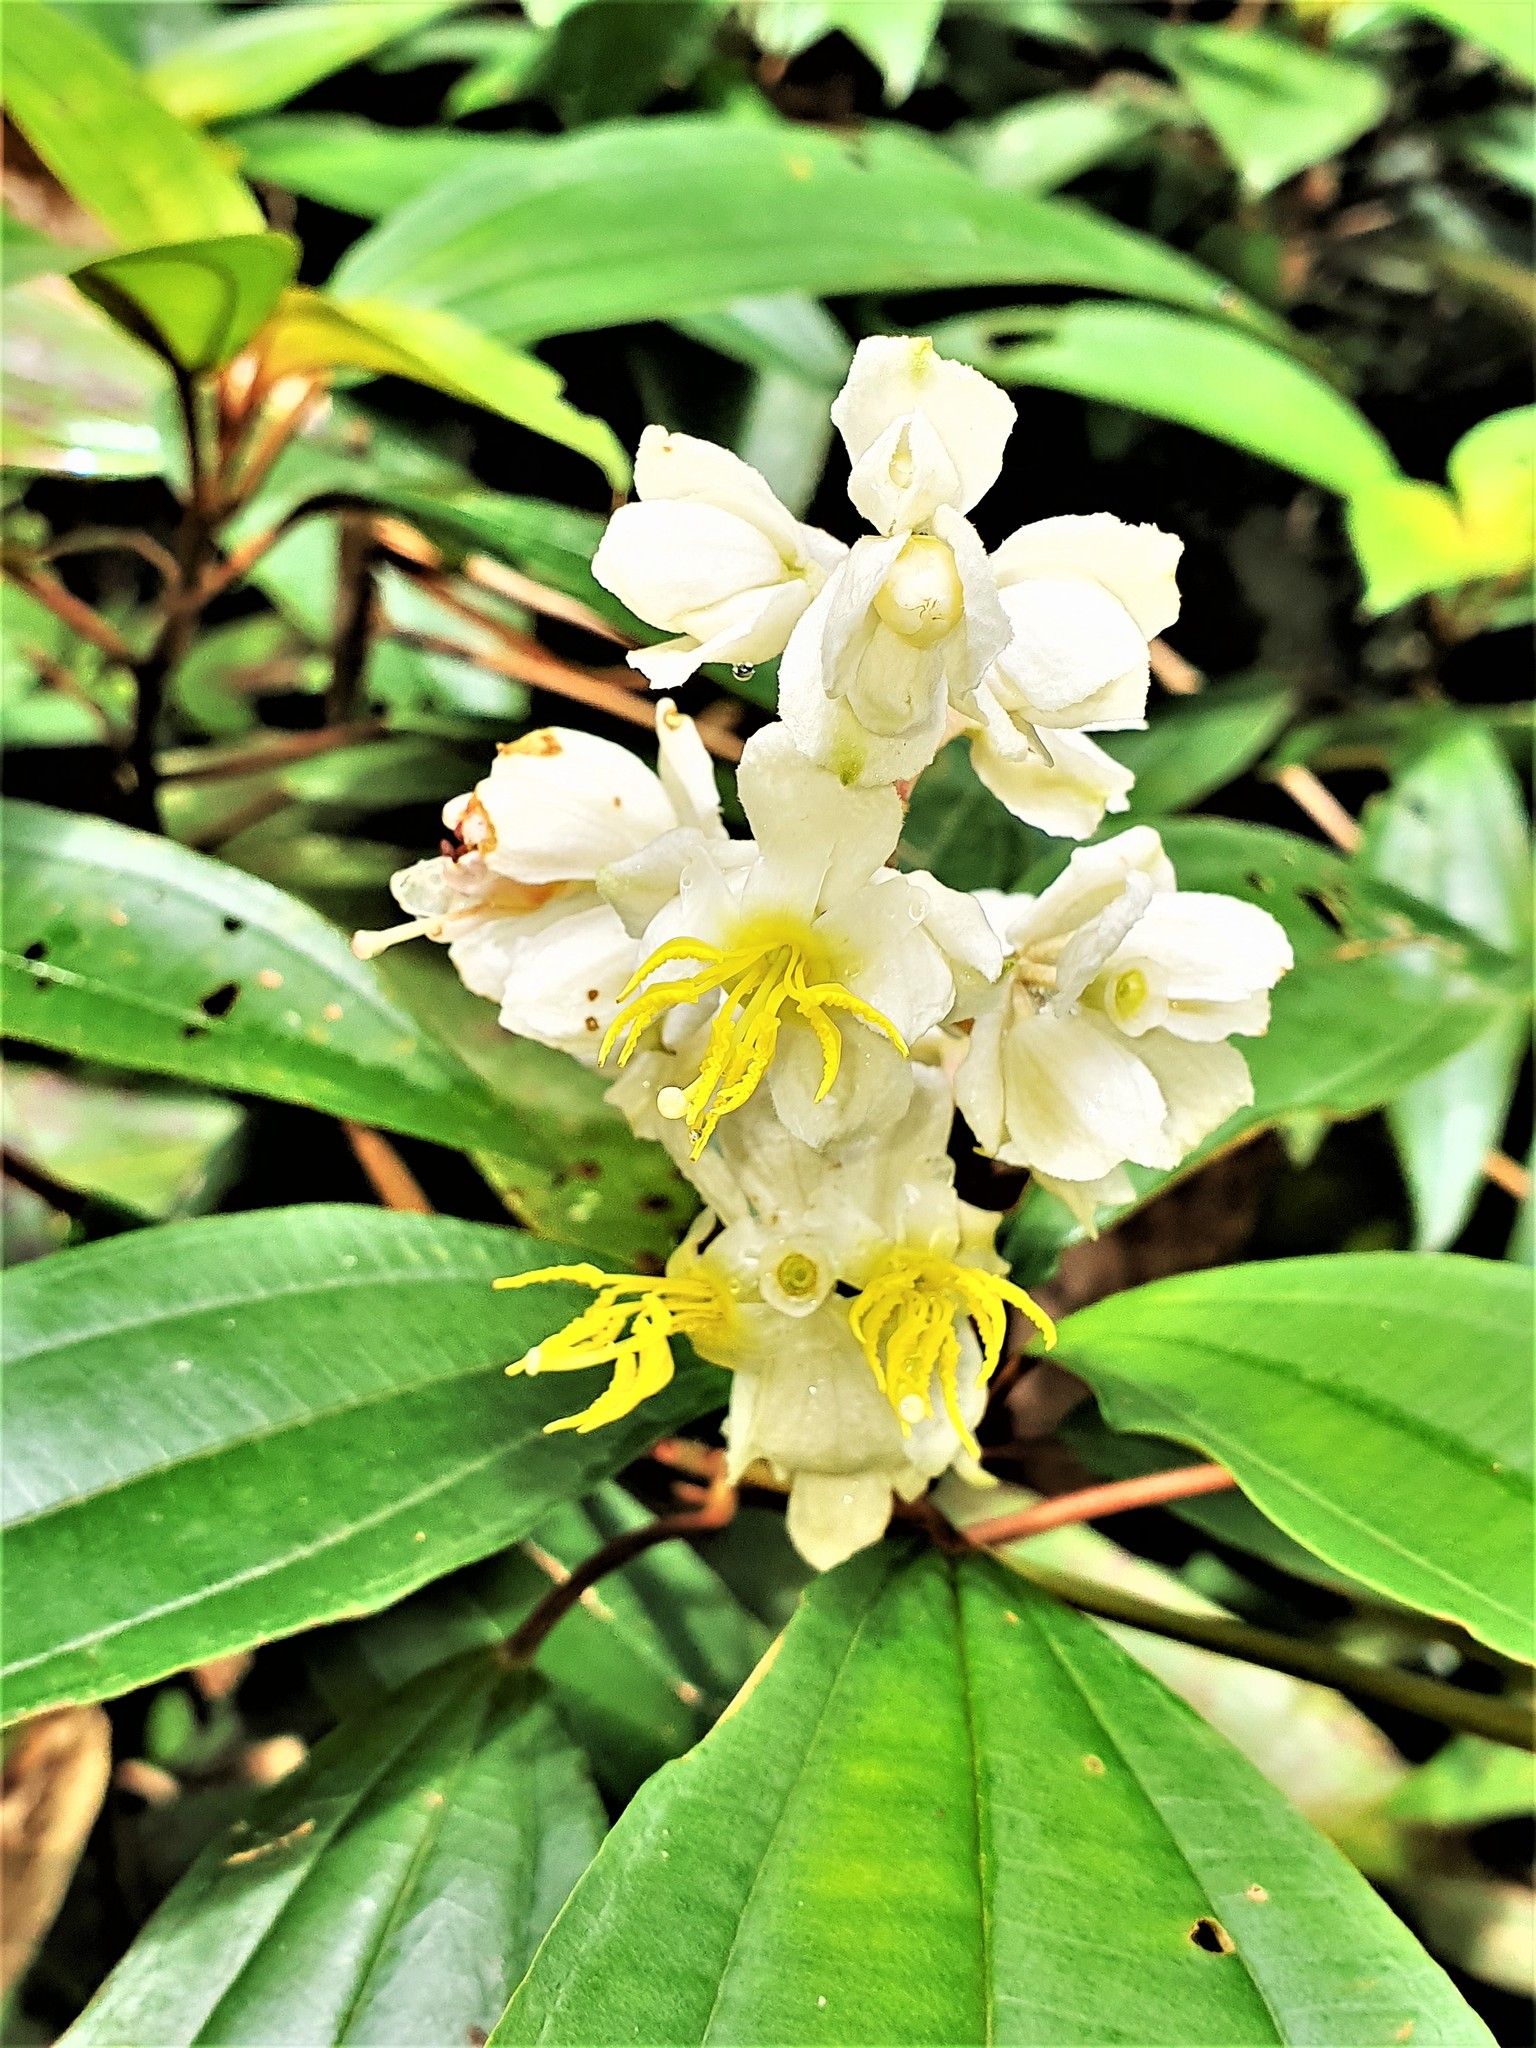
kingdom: Plantae
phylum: Tracheophyta
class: Magnoliopsida
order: Myrtales
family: Melastomataceae
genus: Miconia
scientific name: Miconia mirabilis
